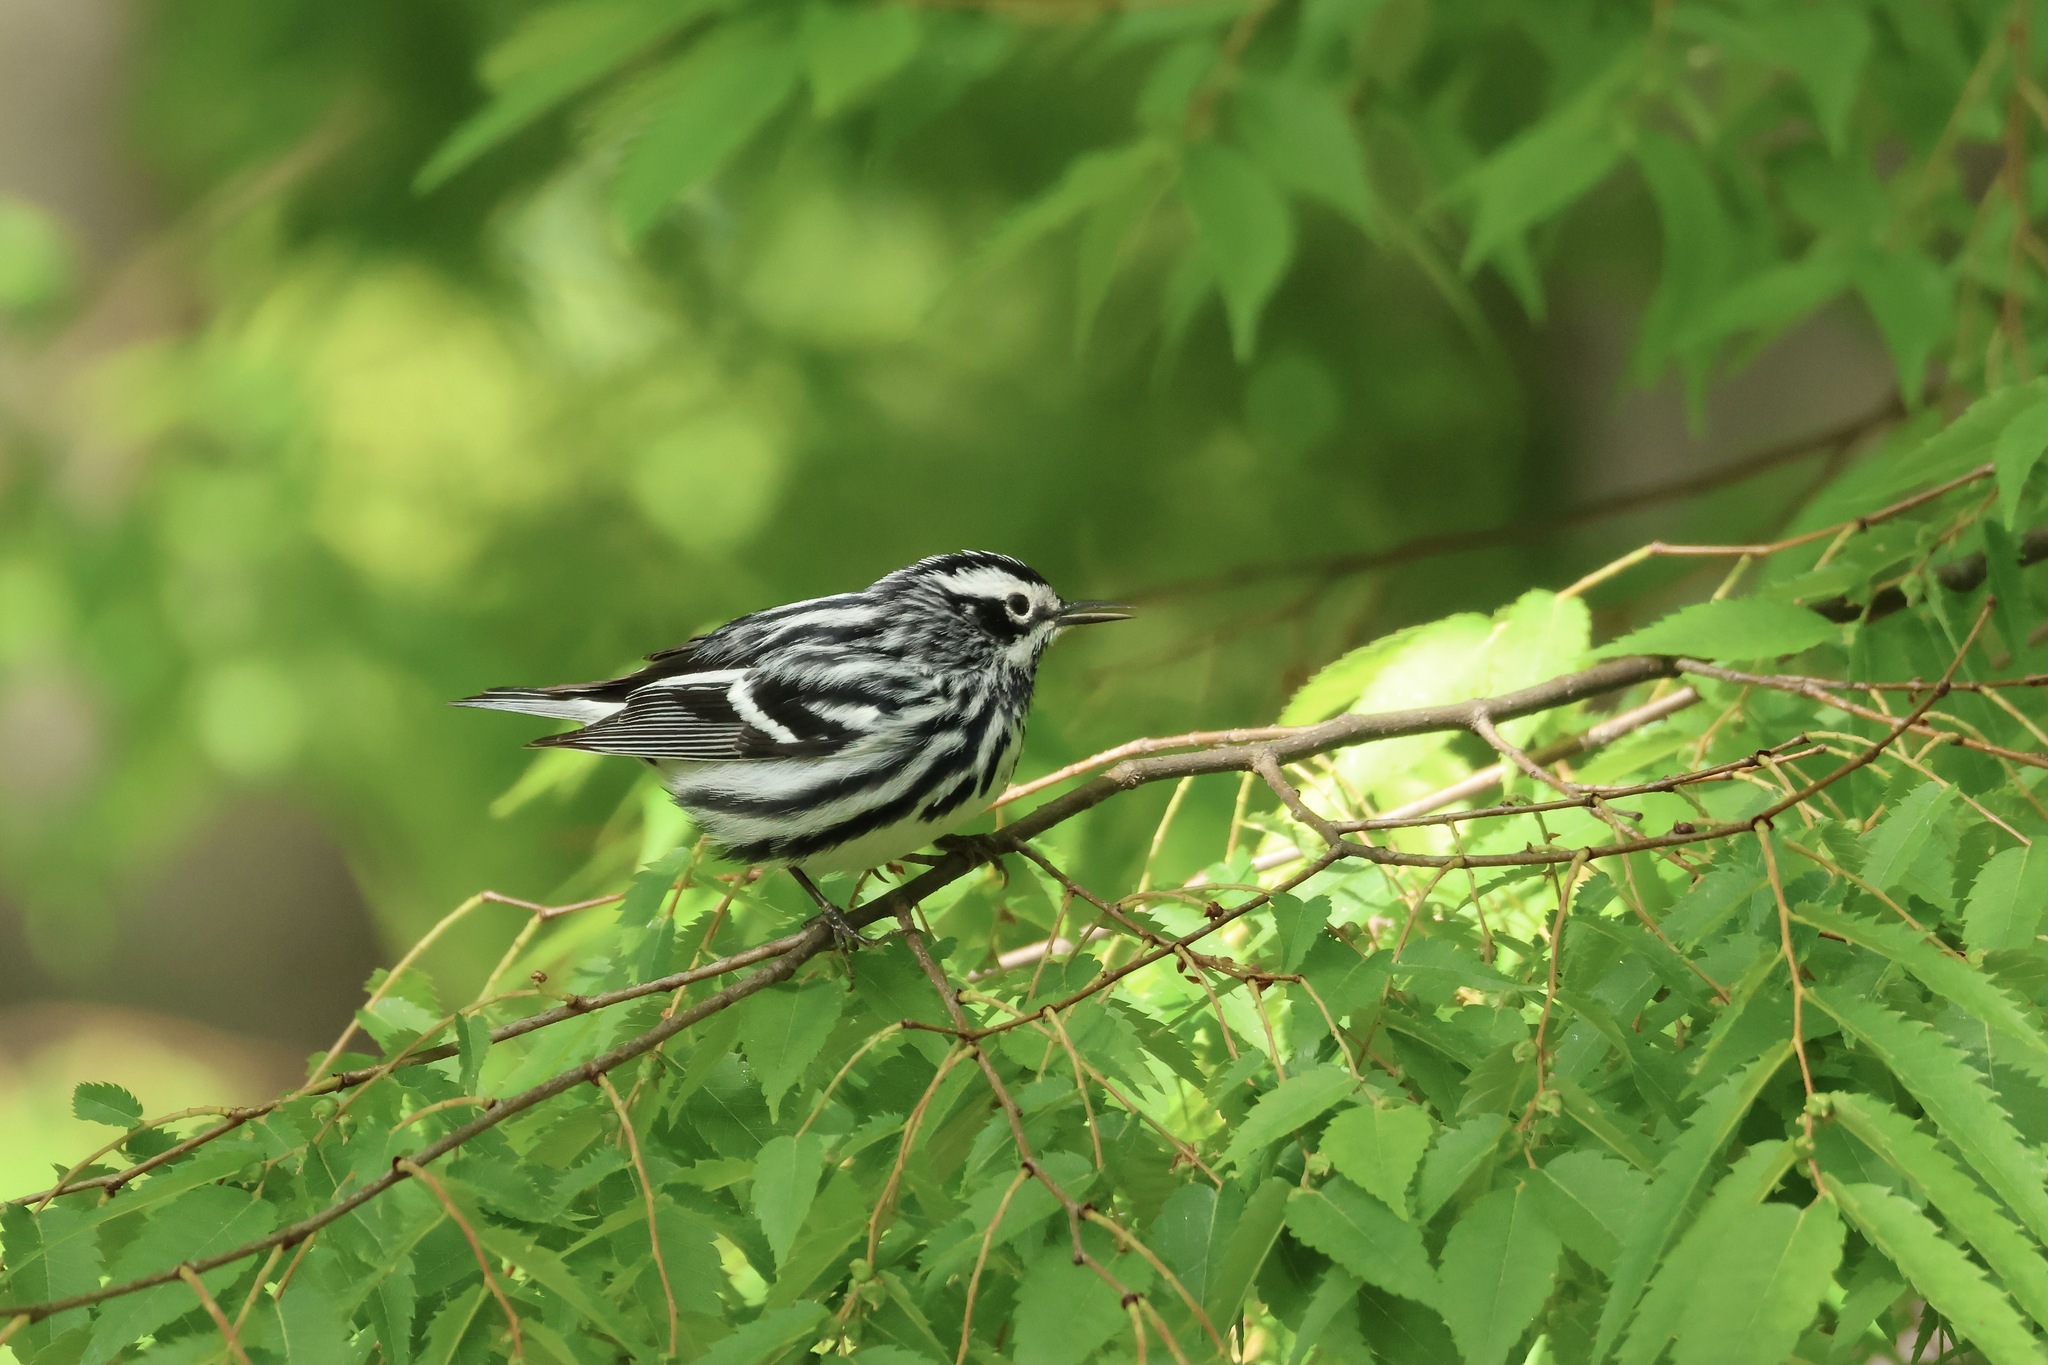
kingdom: Animalia
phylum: Chordata
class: Aves
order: Passeriformes
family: Parulidae
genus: Mniotilta
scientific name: Mniotilta varia
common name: Black-and-white warbler
